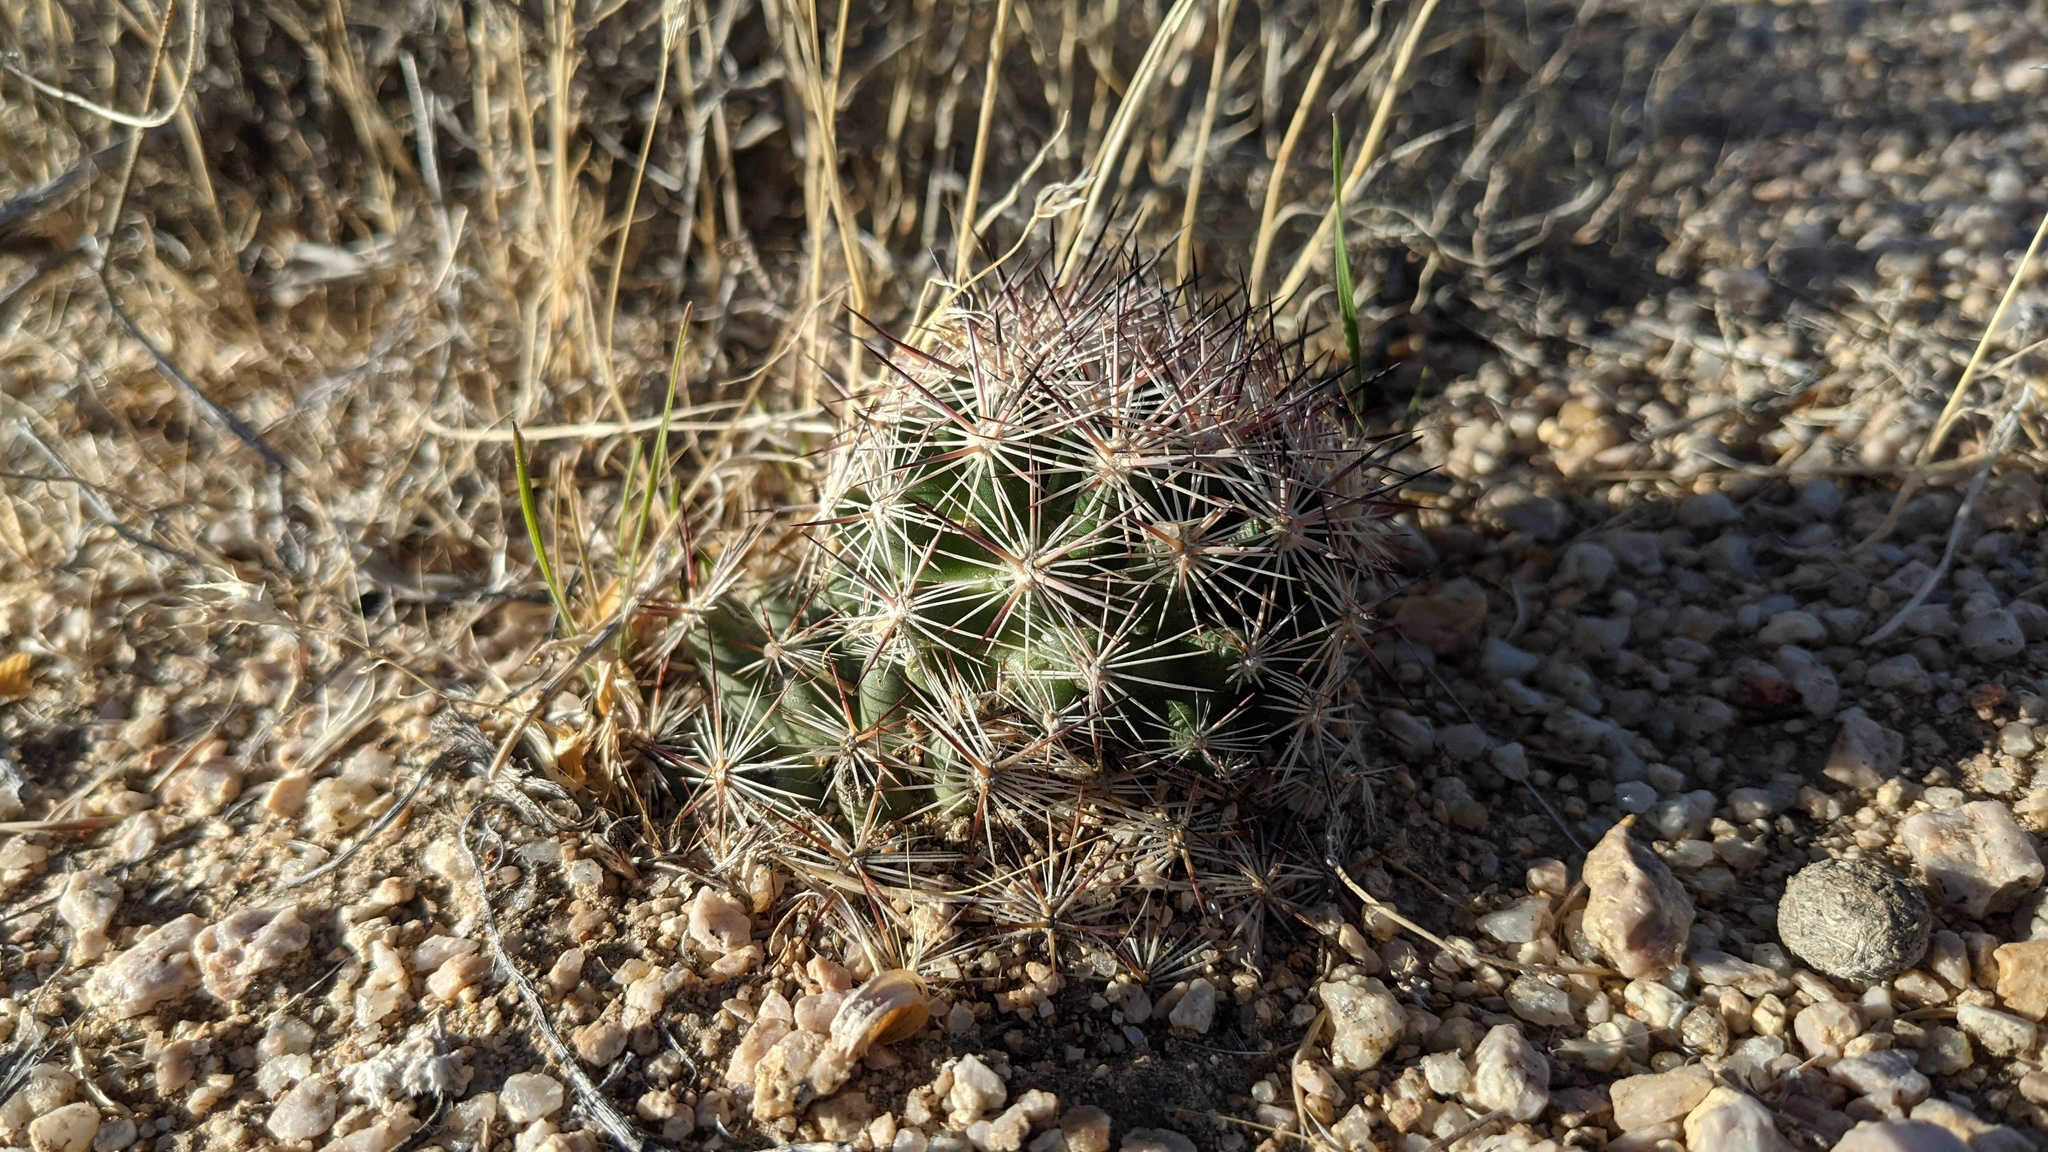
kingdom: Plantae
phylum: Tracheophyta
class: Magnoliopsida
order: Caryophyllales
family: Cactaceae
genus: Pelecyphora
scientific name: Pelecyphora vivipara
